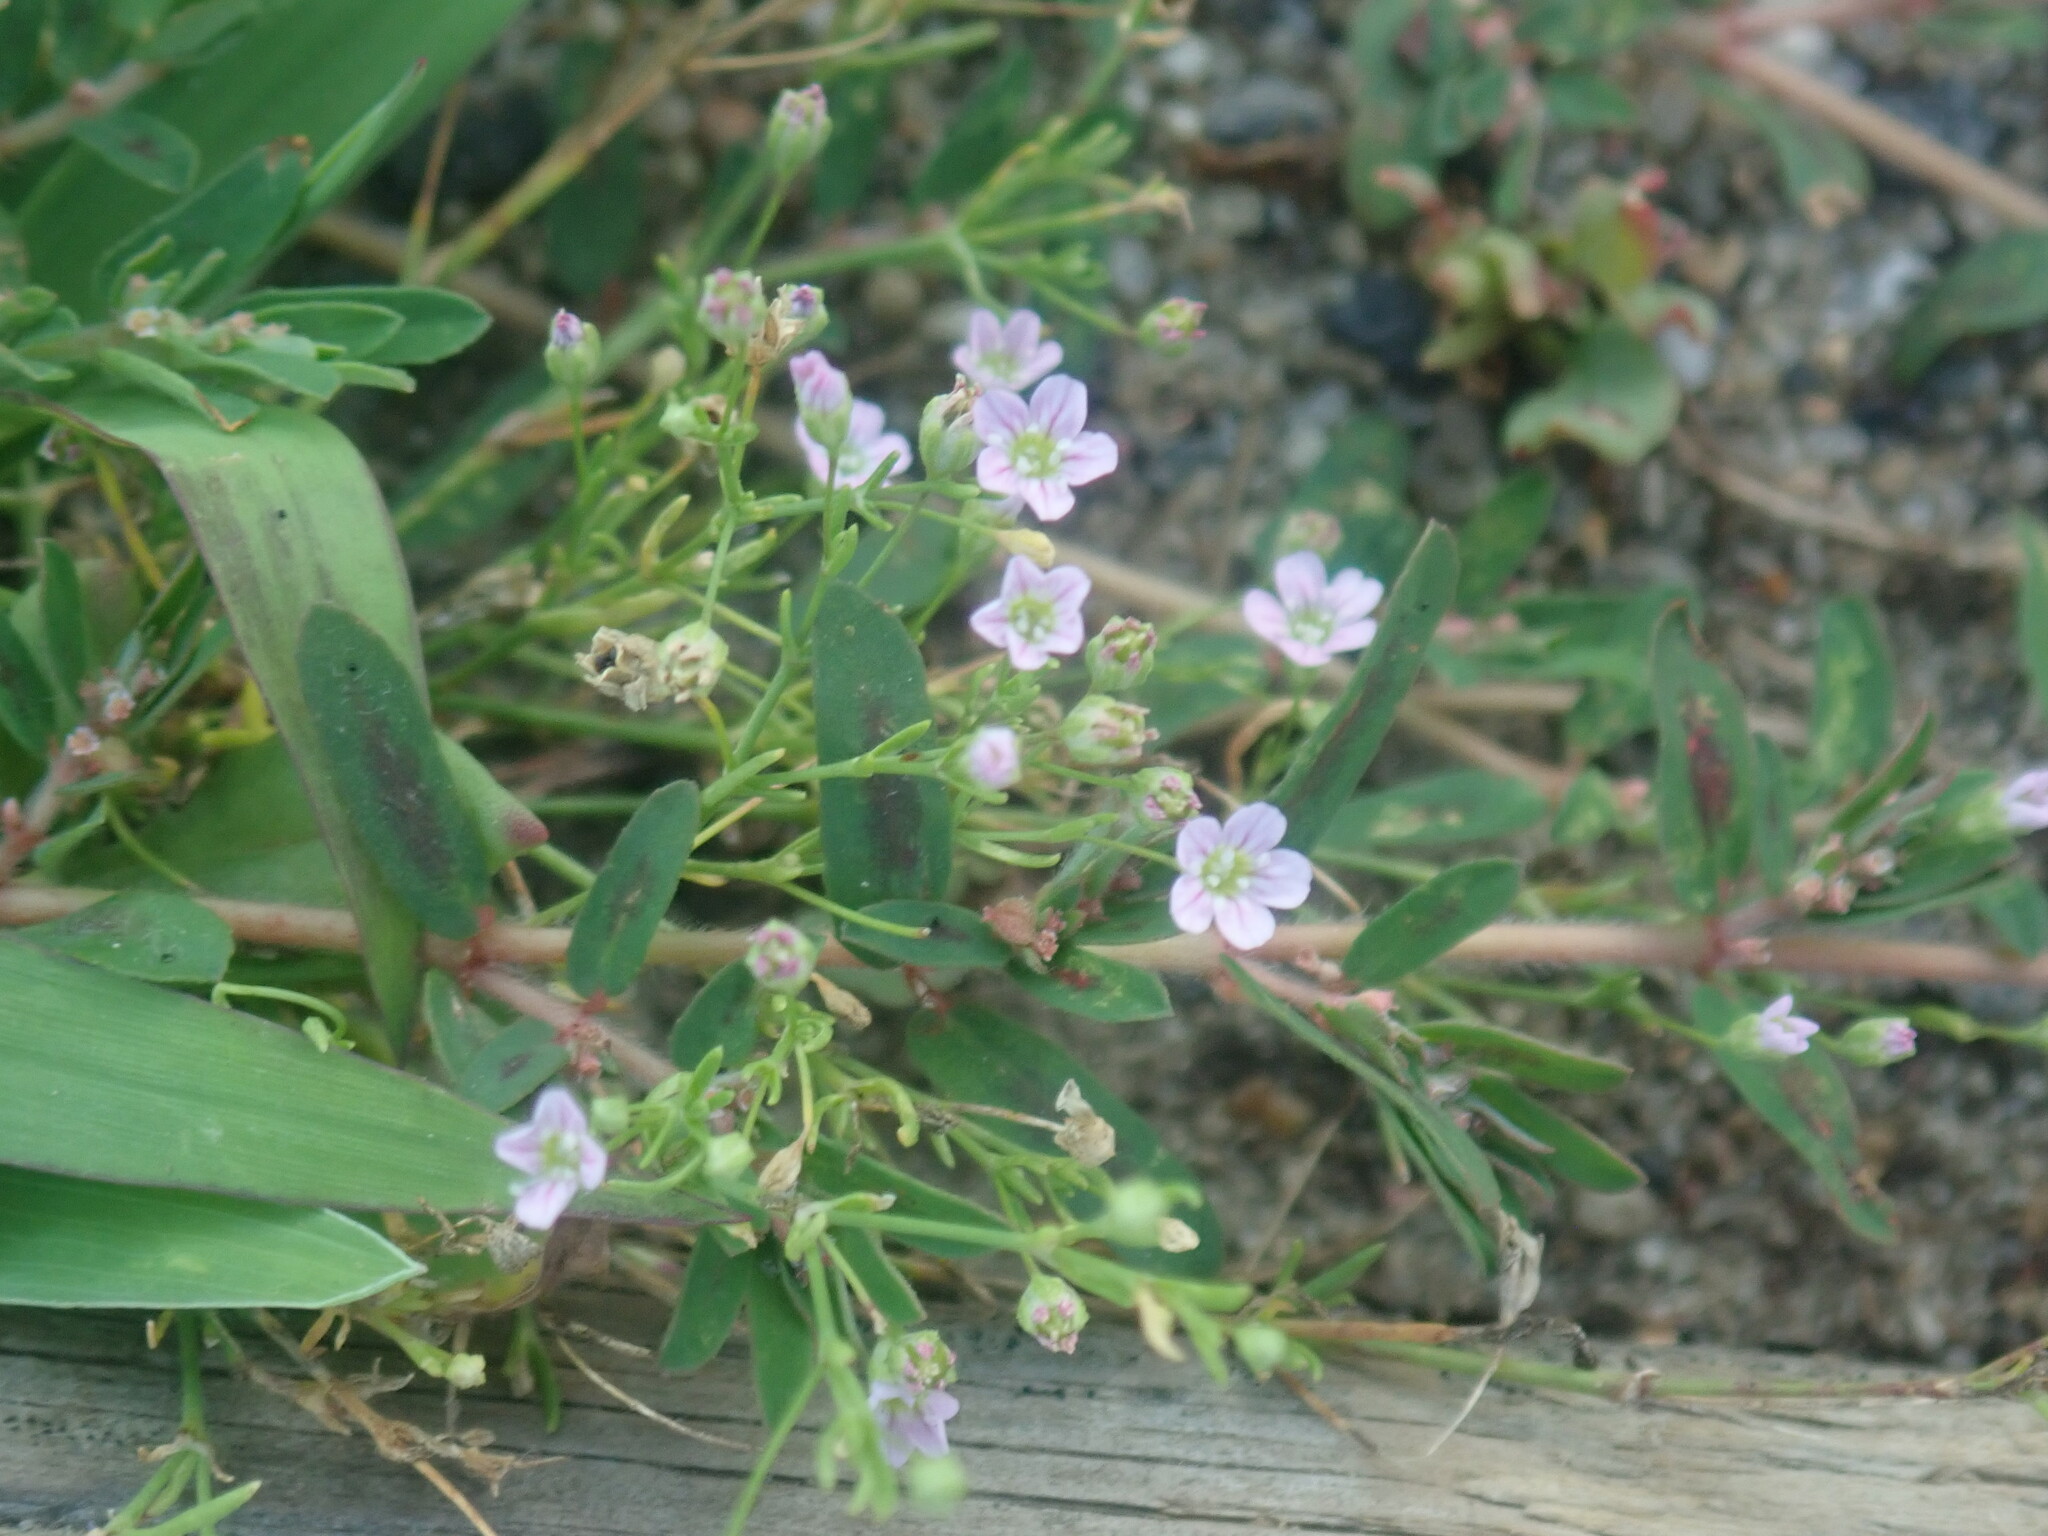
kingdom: Plantae
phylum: Tracheophyta
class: Magnoliopsida
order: Caryophyllales
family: Caryophyllaceae
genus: Psammophiliella
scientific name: Psammophiliella muralis
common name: Cushion baby's-breath
